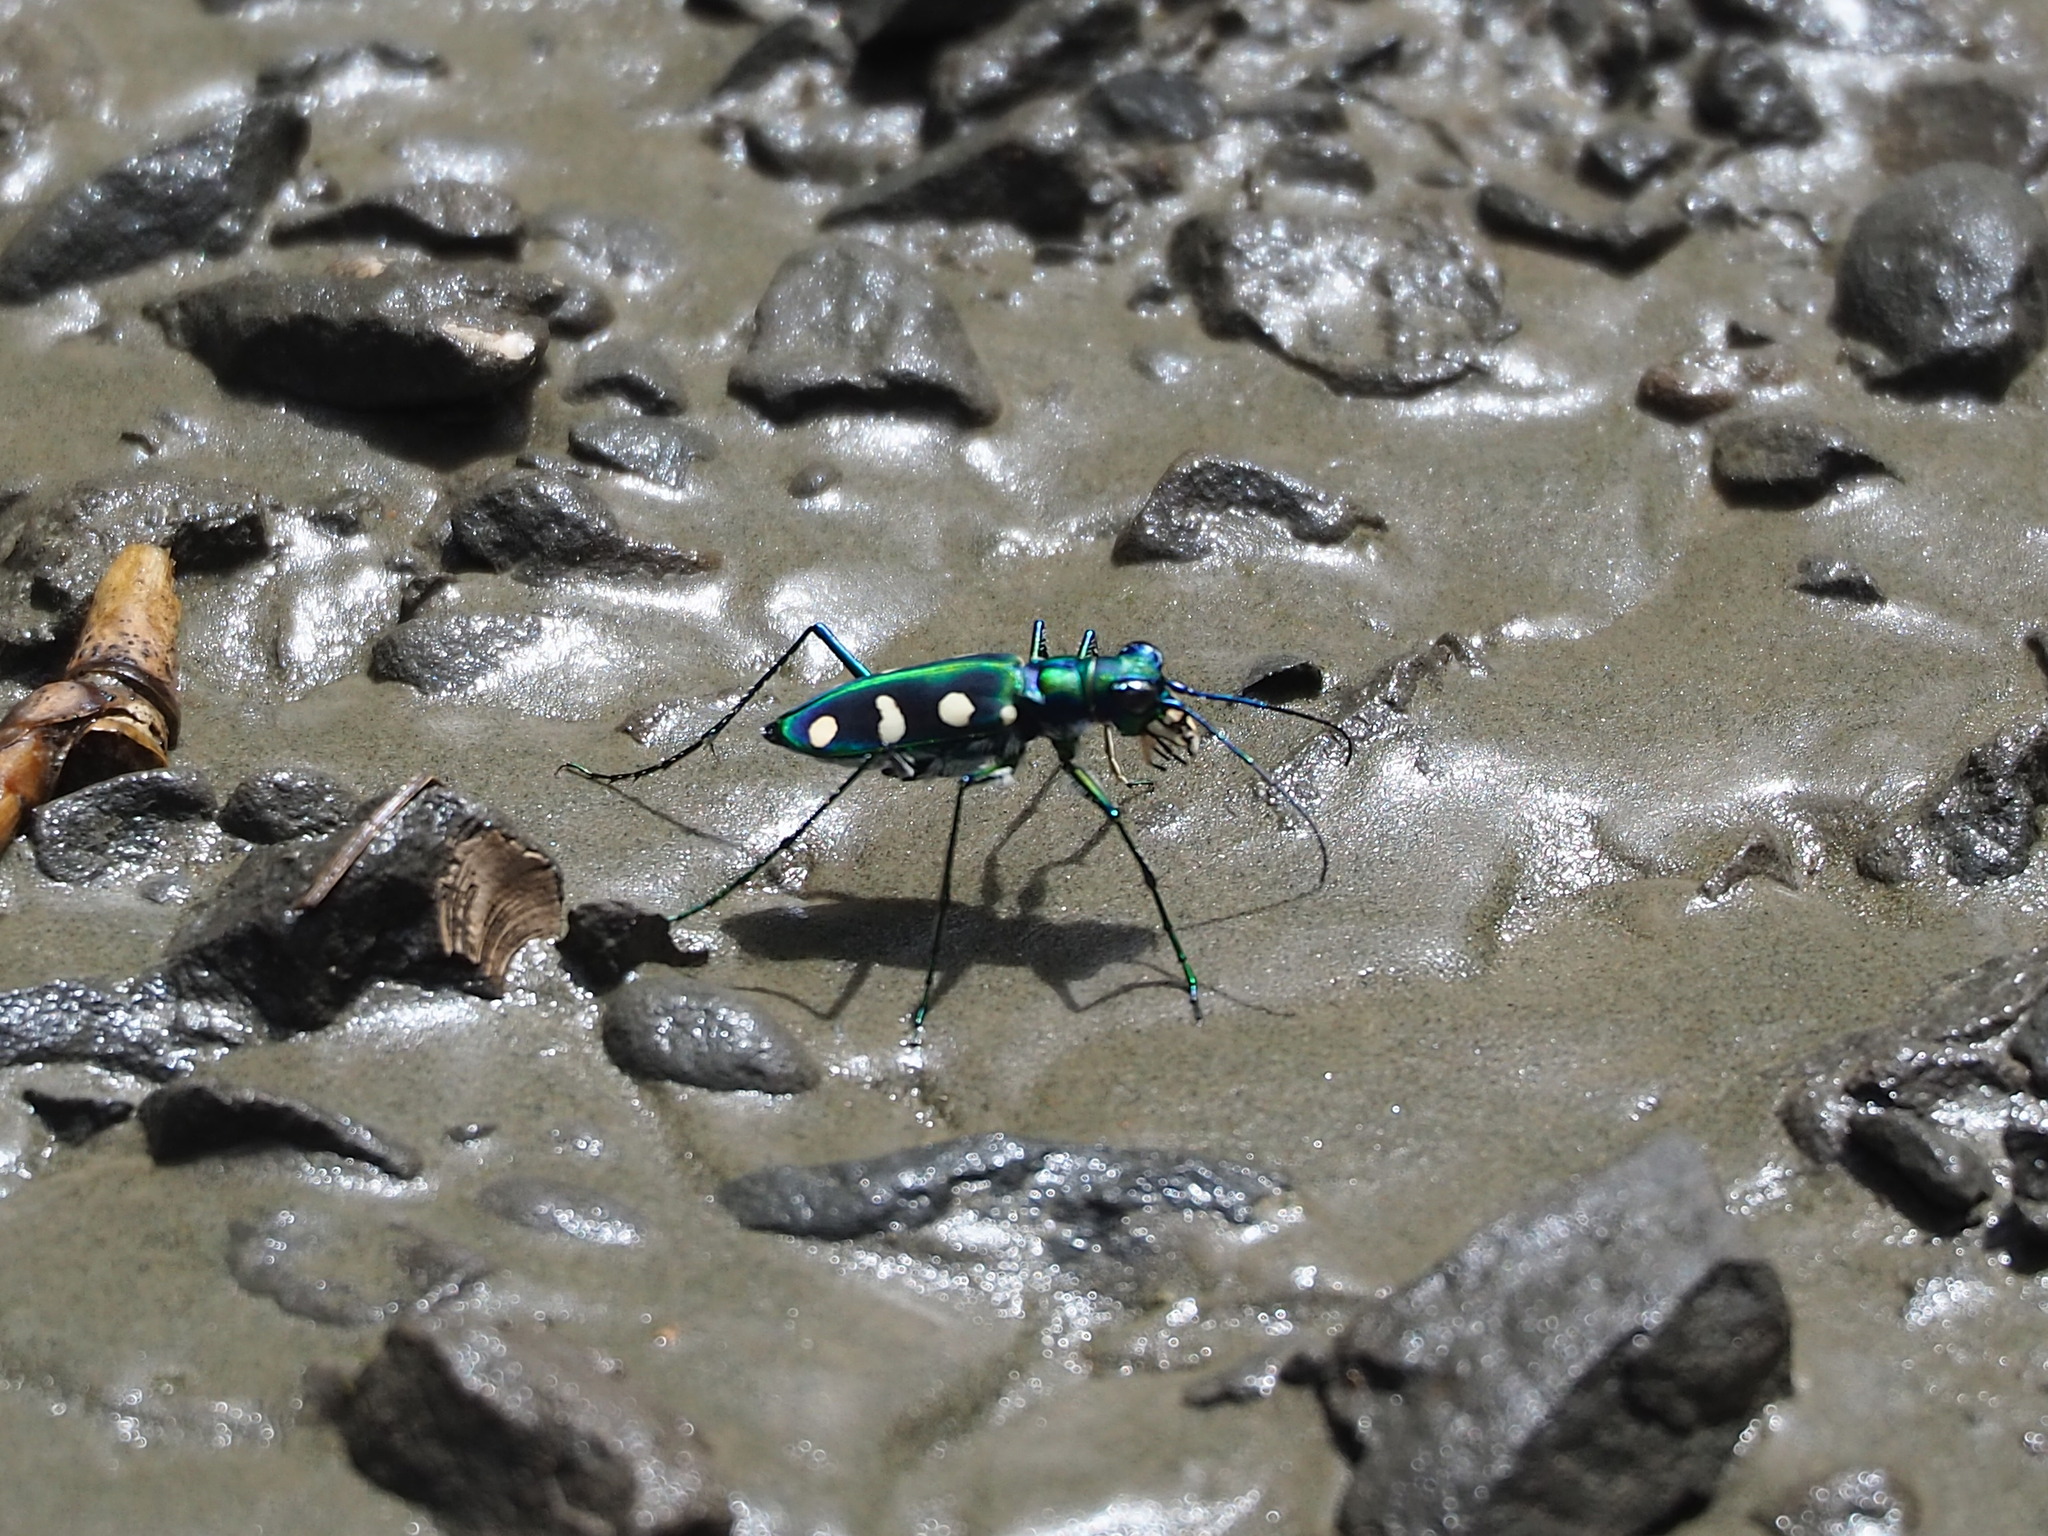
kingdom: Animalia
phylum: Arthropoda
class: Insecta
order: Coleoptera
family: Carabidae
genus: Cicindela
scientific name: Cicindela batesi
